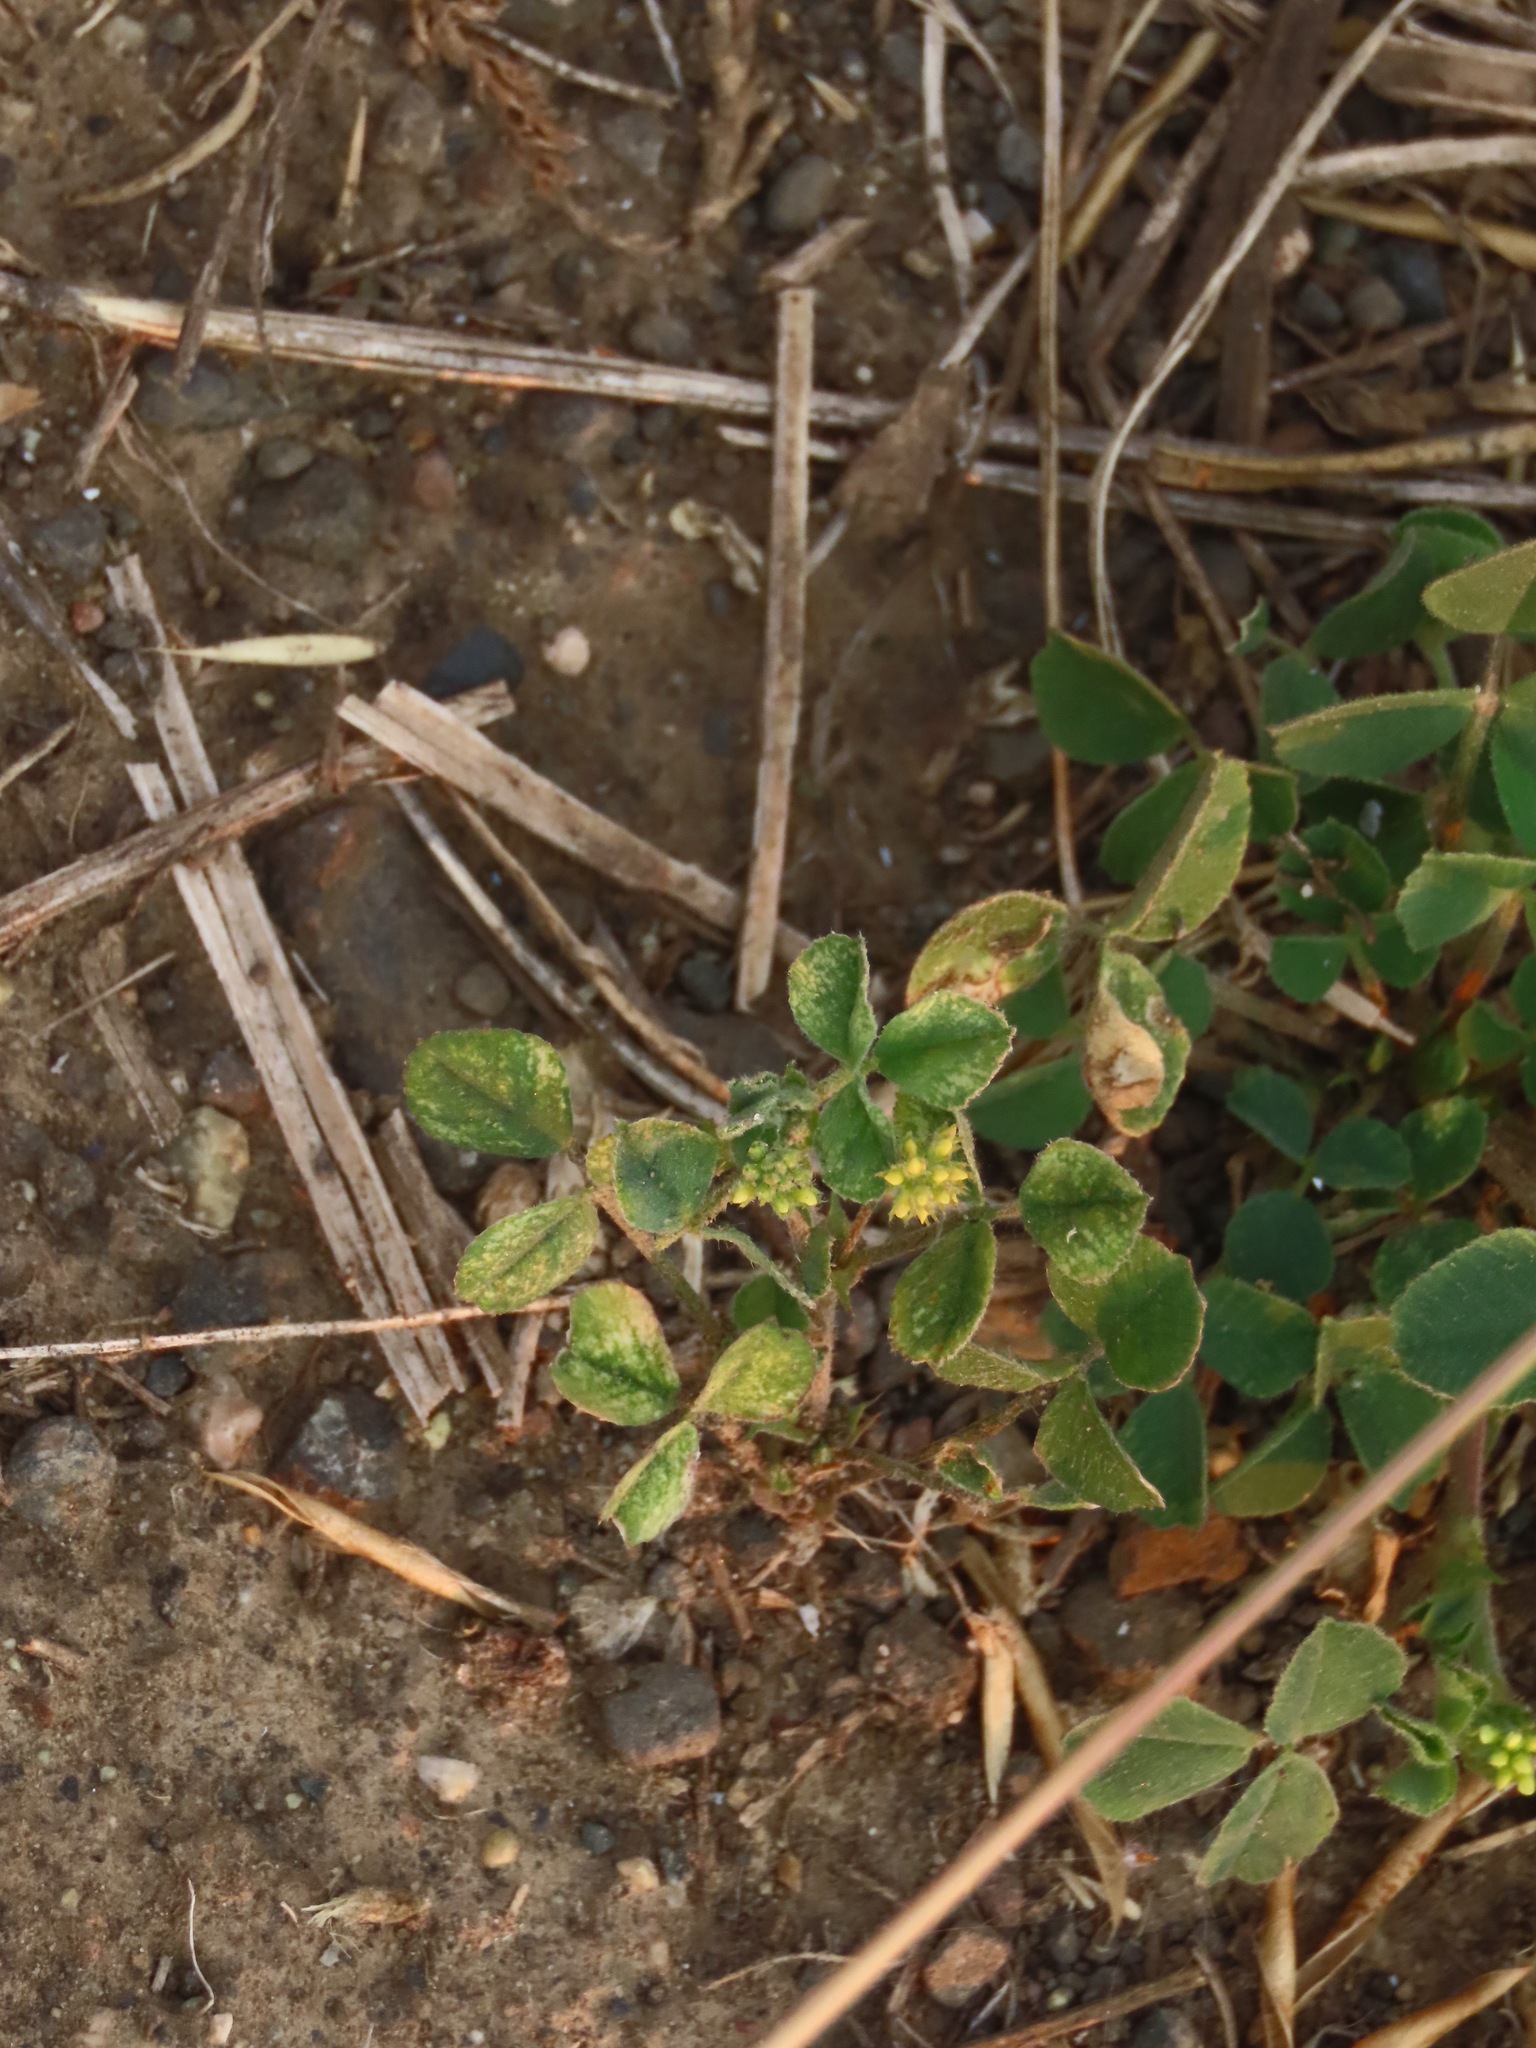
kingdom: Plantae
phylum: Tracheophyta
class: Magnoliopsida
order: Fabales
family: Fabaceae
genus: Medicago
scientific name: Medicago lupulina
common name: Black medick
